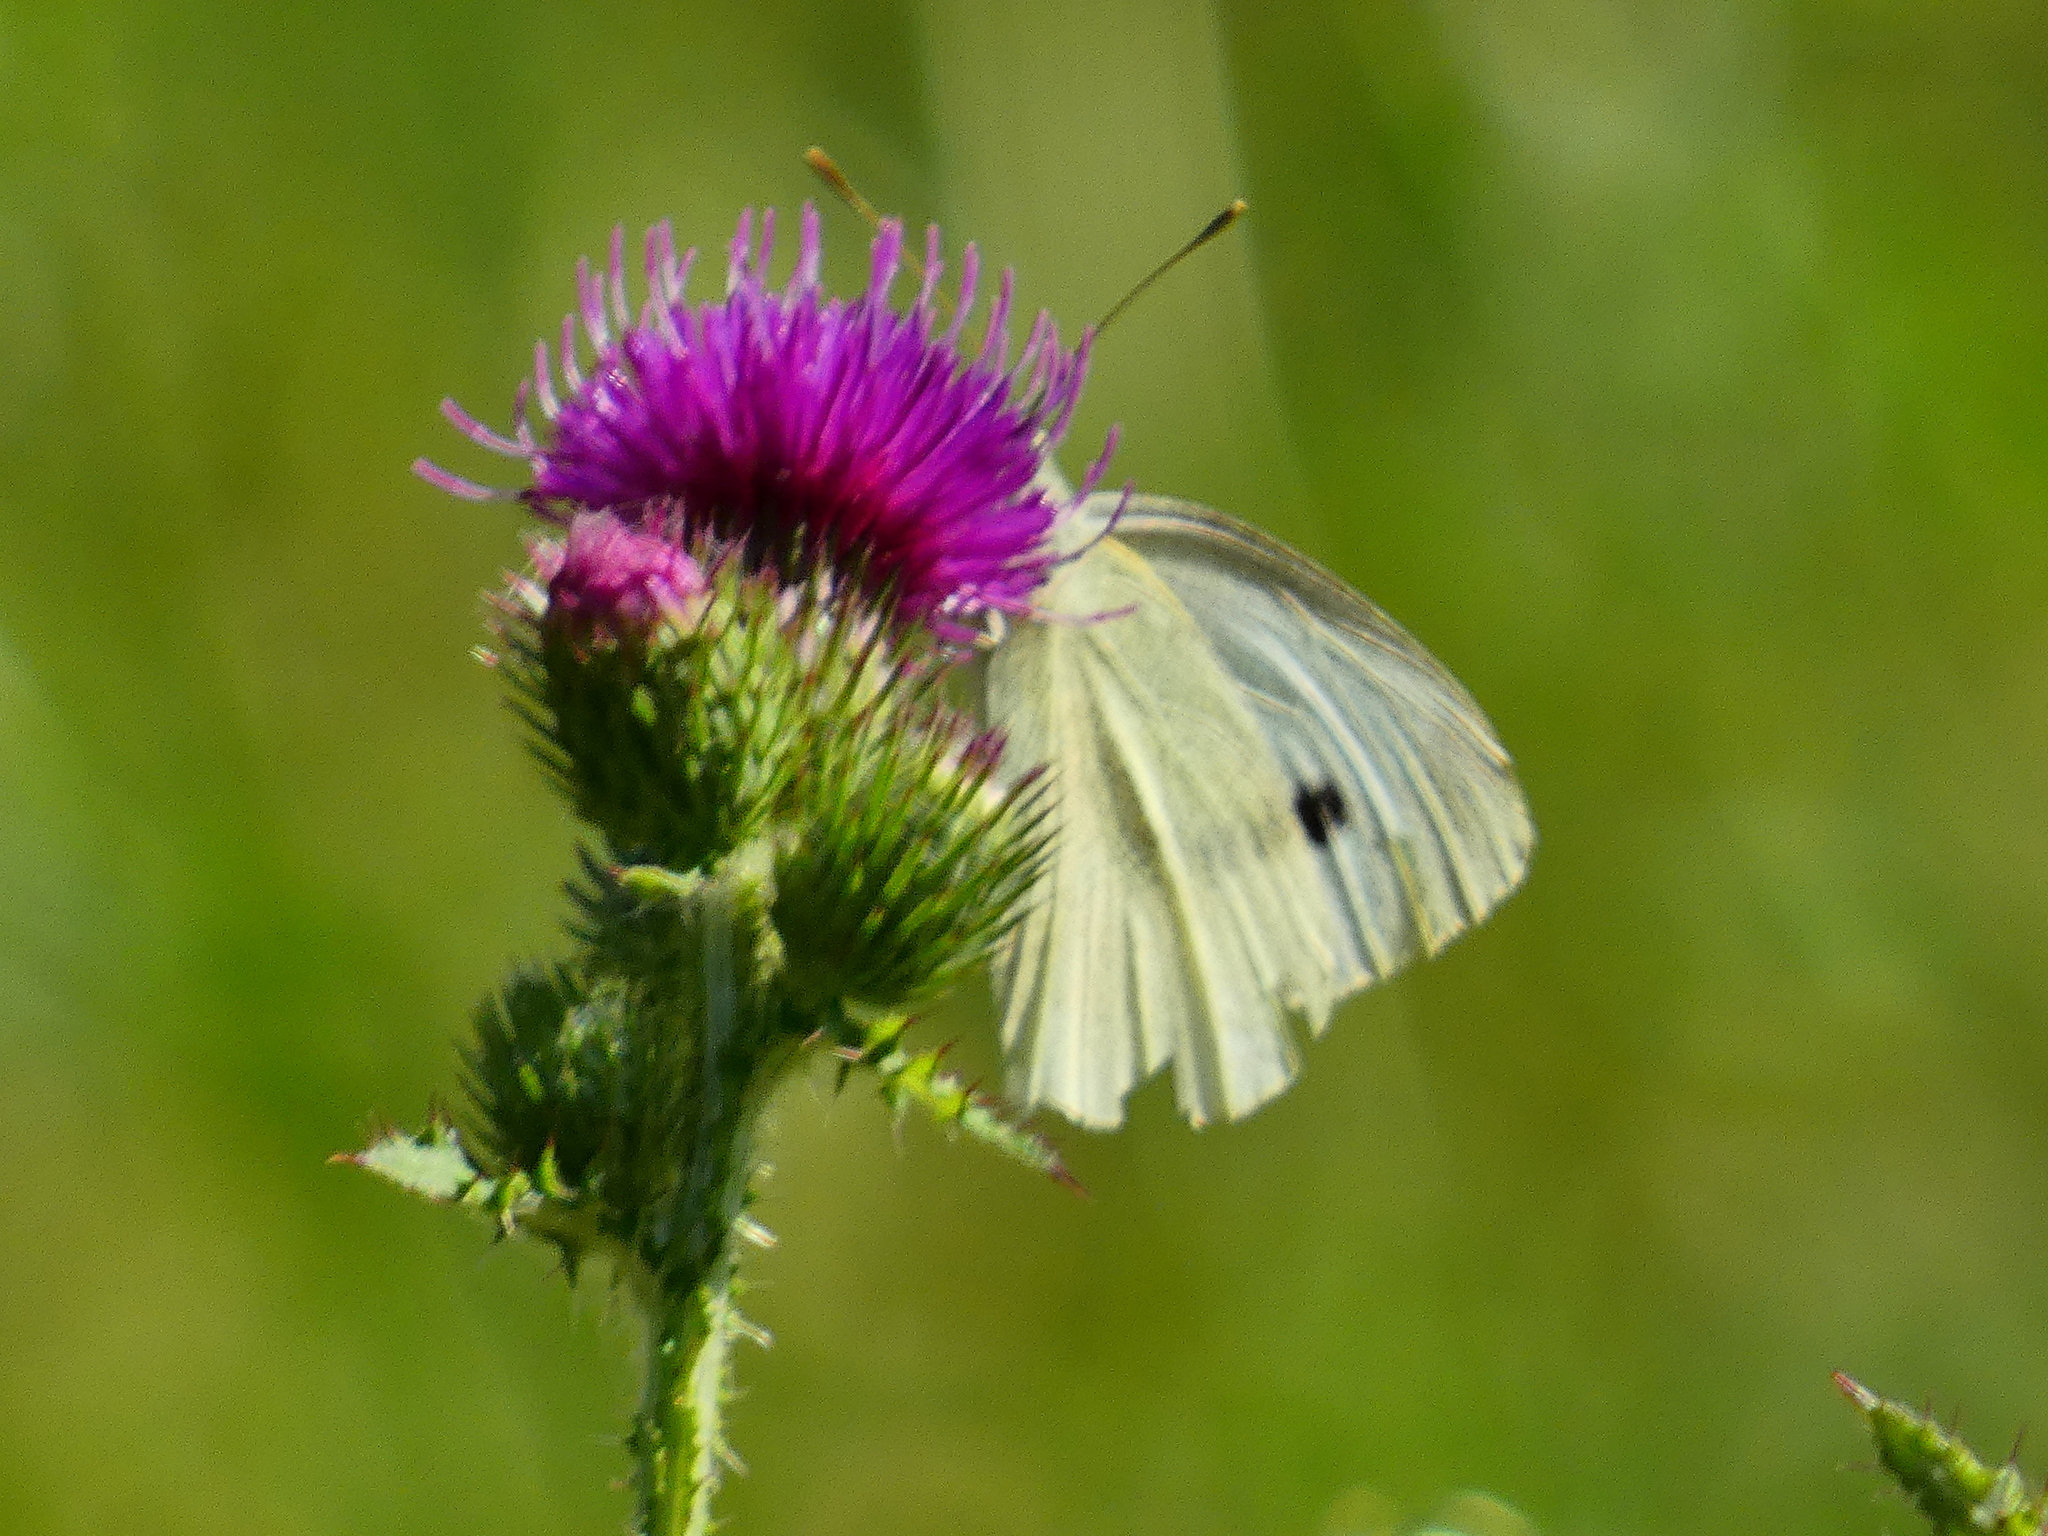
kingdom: Animalia
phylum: Arthropoda
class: Insecta
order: Lepidoptera
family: Pieridae
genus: Pieris
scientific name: Pieris rapae
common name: Small white
